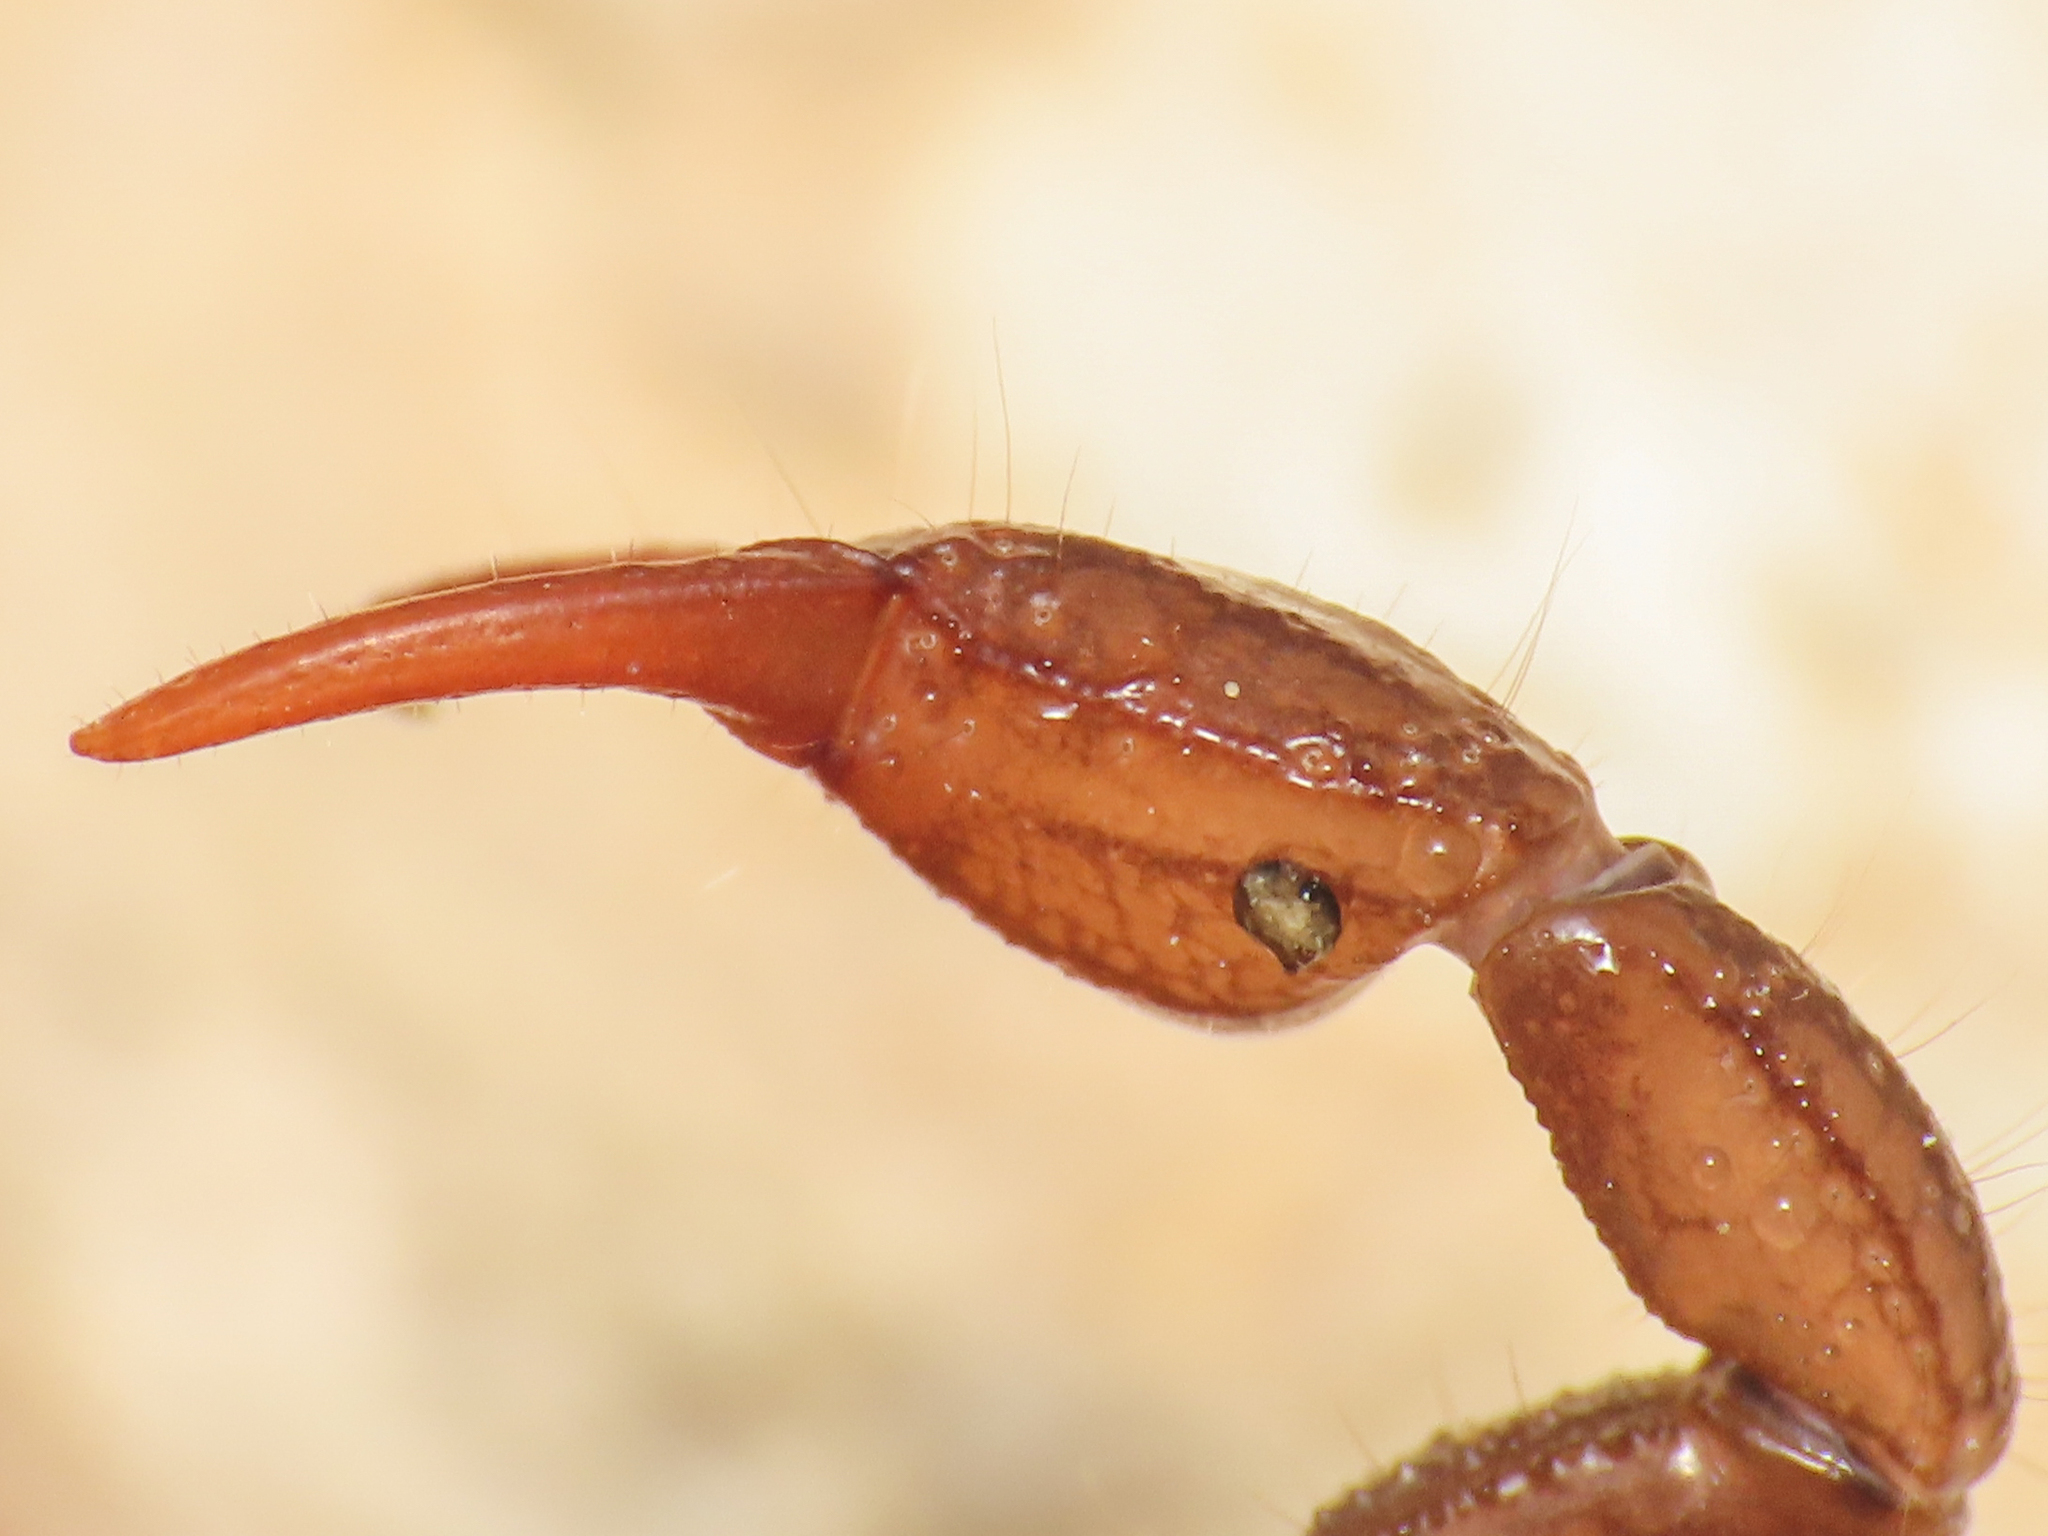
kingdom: Animalia
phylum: Arthropoda
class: Arachnida
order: Scorpiones
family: Euscorpiidae
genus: Euscorpius
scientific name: Euscorpius celanus
